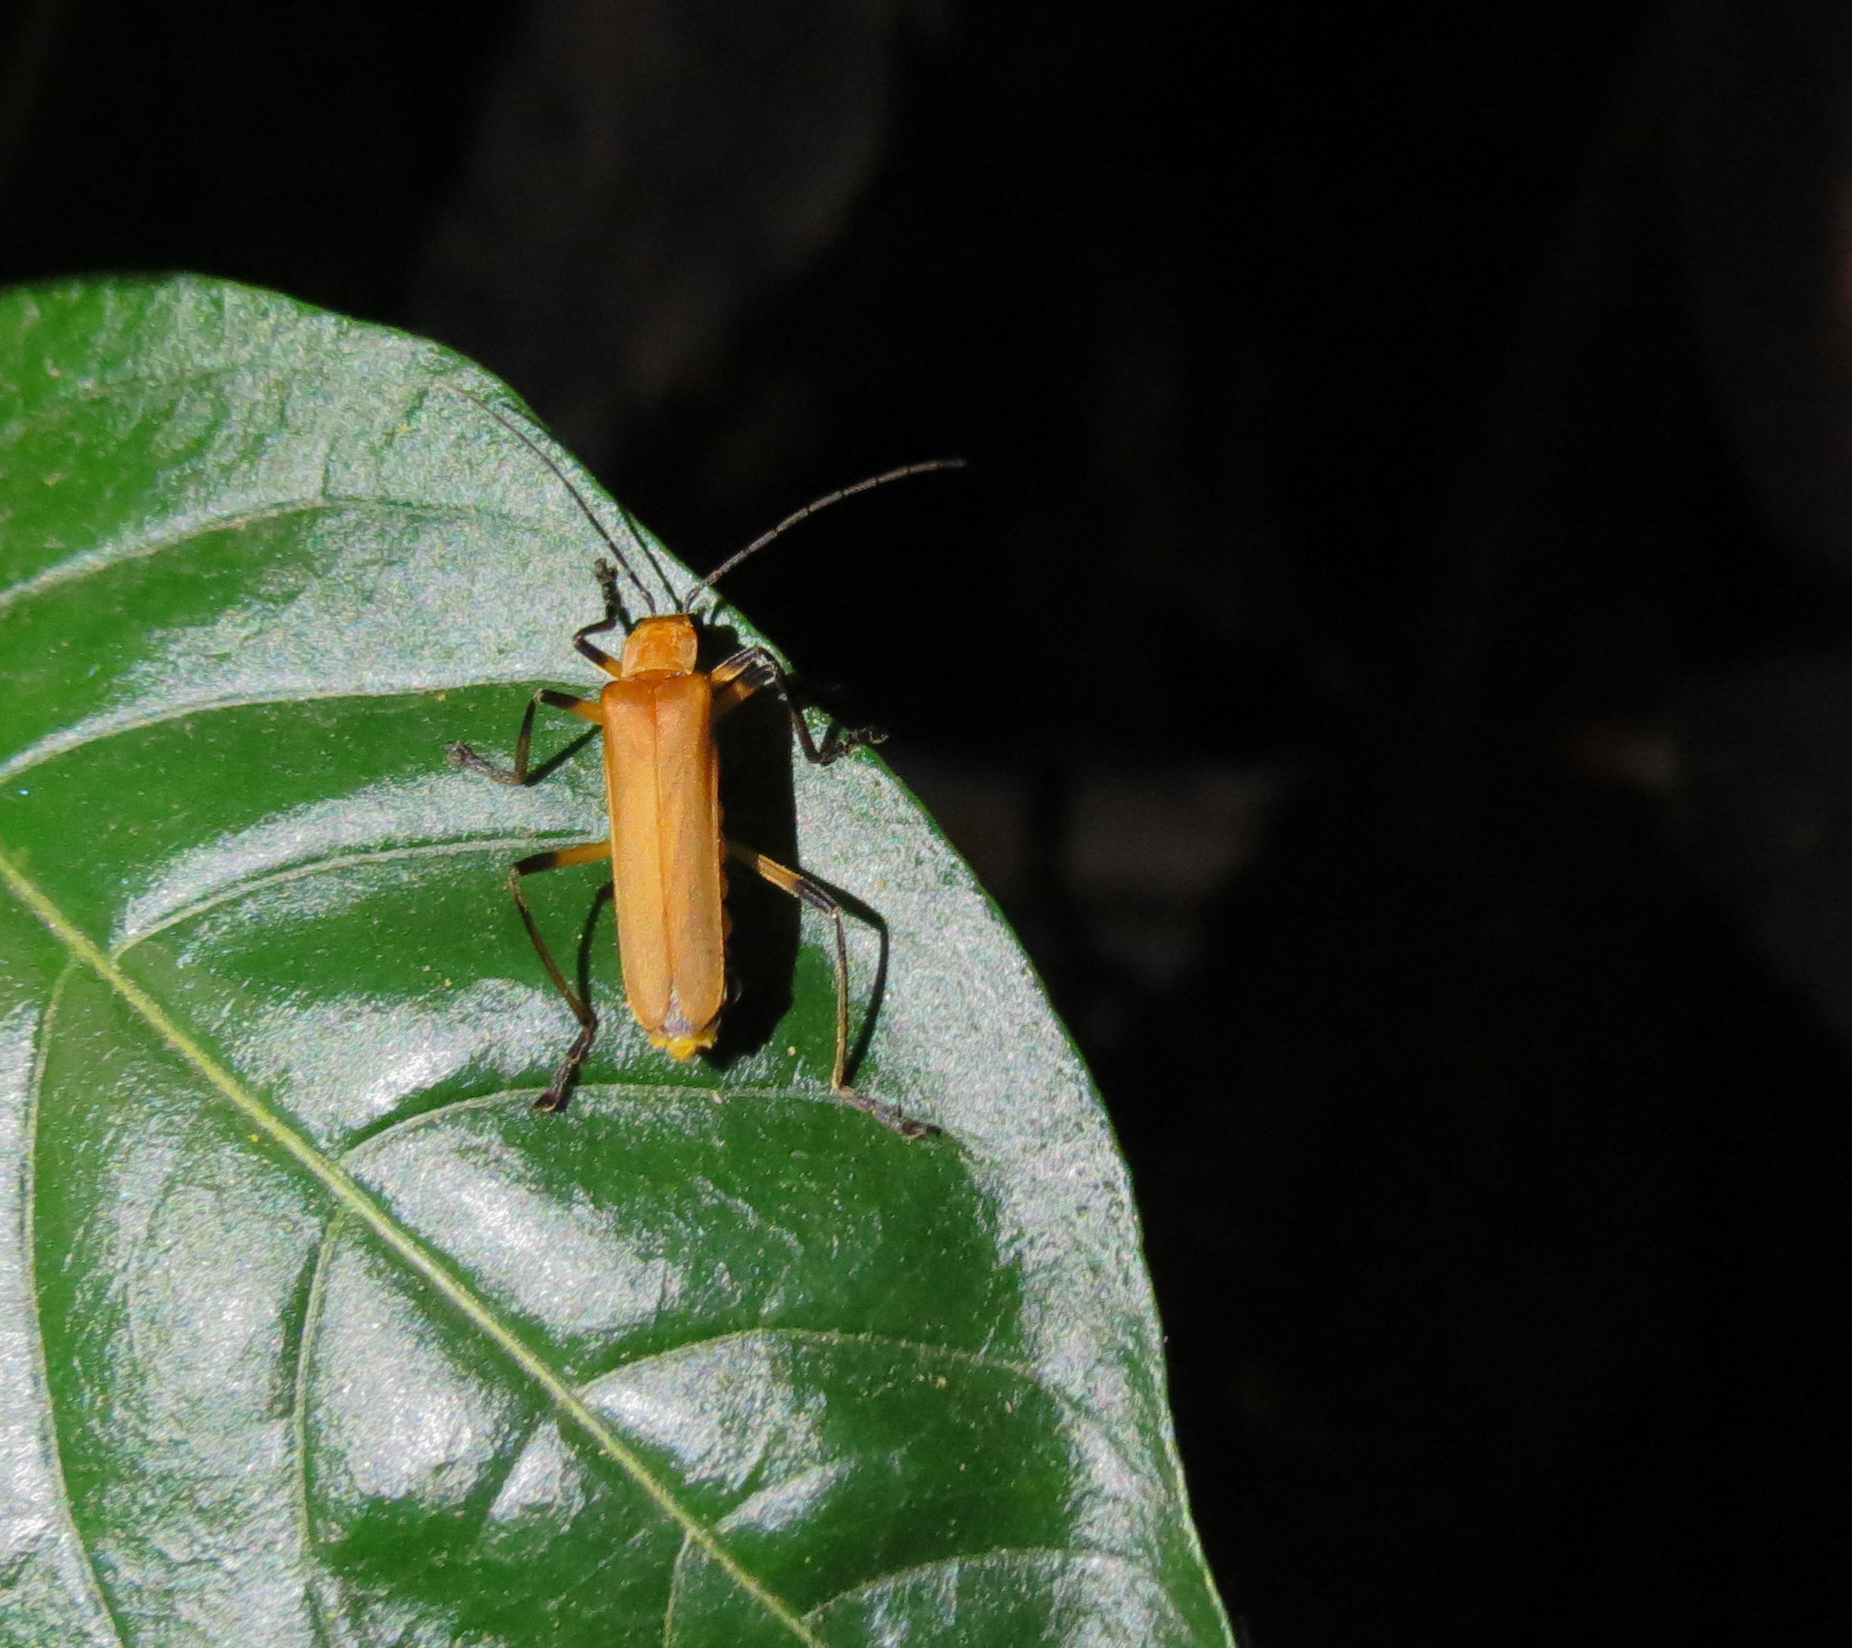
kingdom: Animalia
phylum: Arthropoda
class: Insecta
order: Coleoptera
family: Cantharidae
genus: Chauliognathus
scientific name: Chauliognathus
